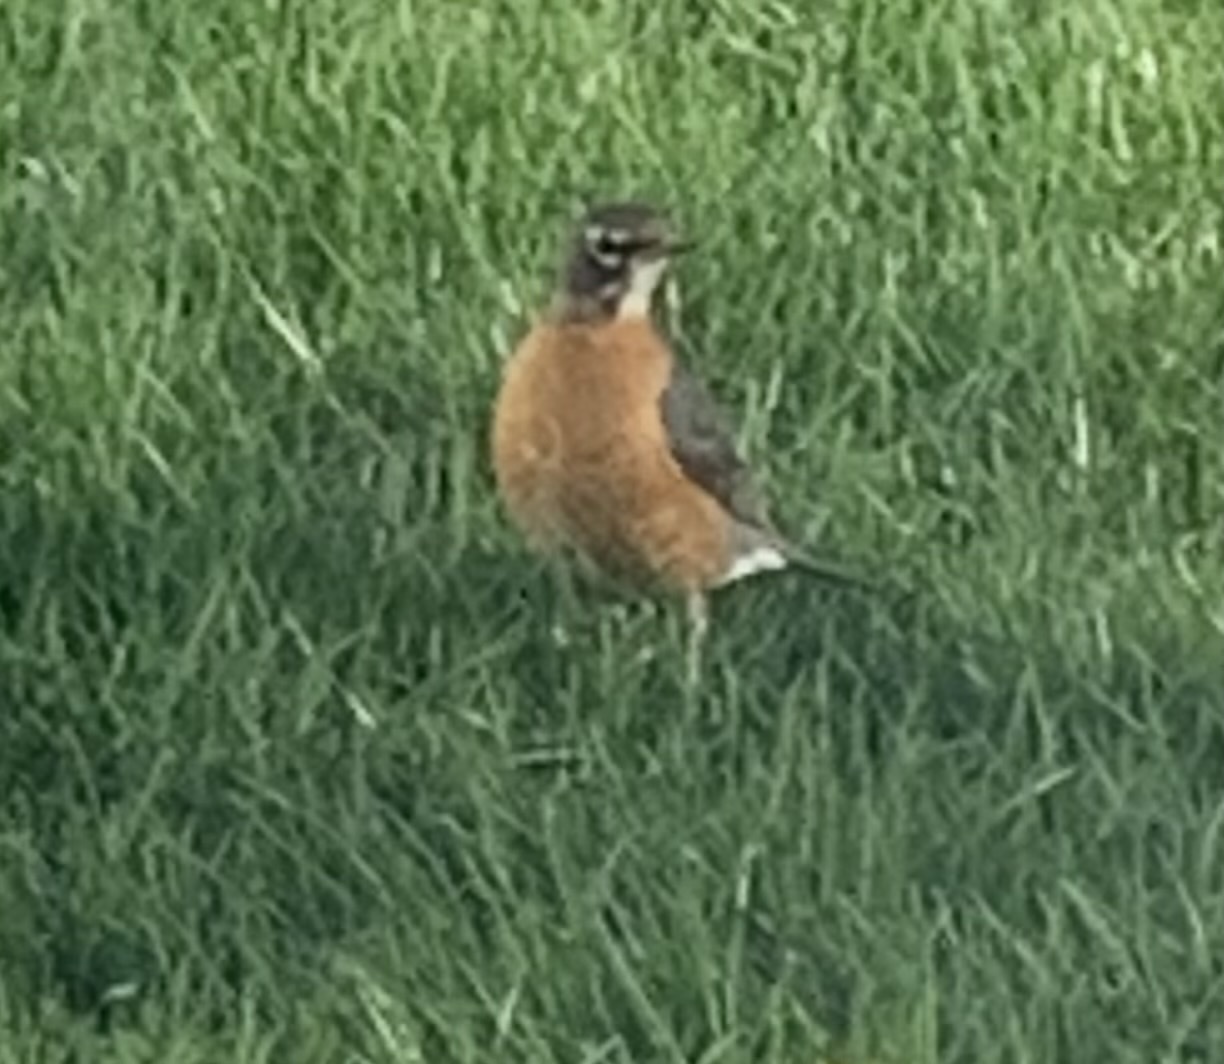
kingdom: Animalia
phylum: Chordata
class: Aves
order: Passeriformes
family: Turdidae
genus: Turdus
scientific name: Turdus migratorius
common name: American robin
